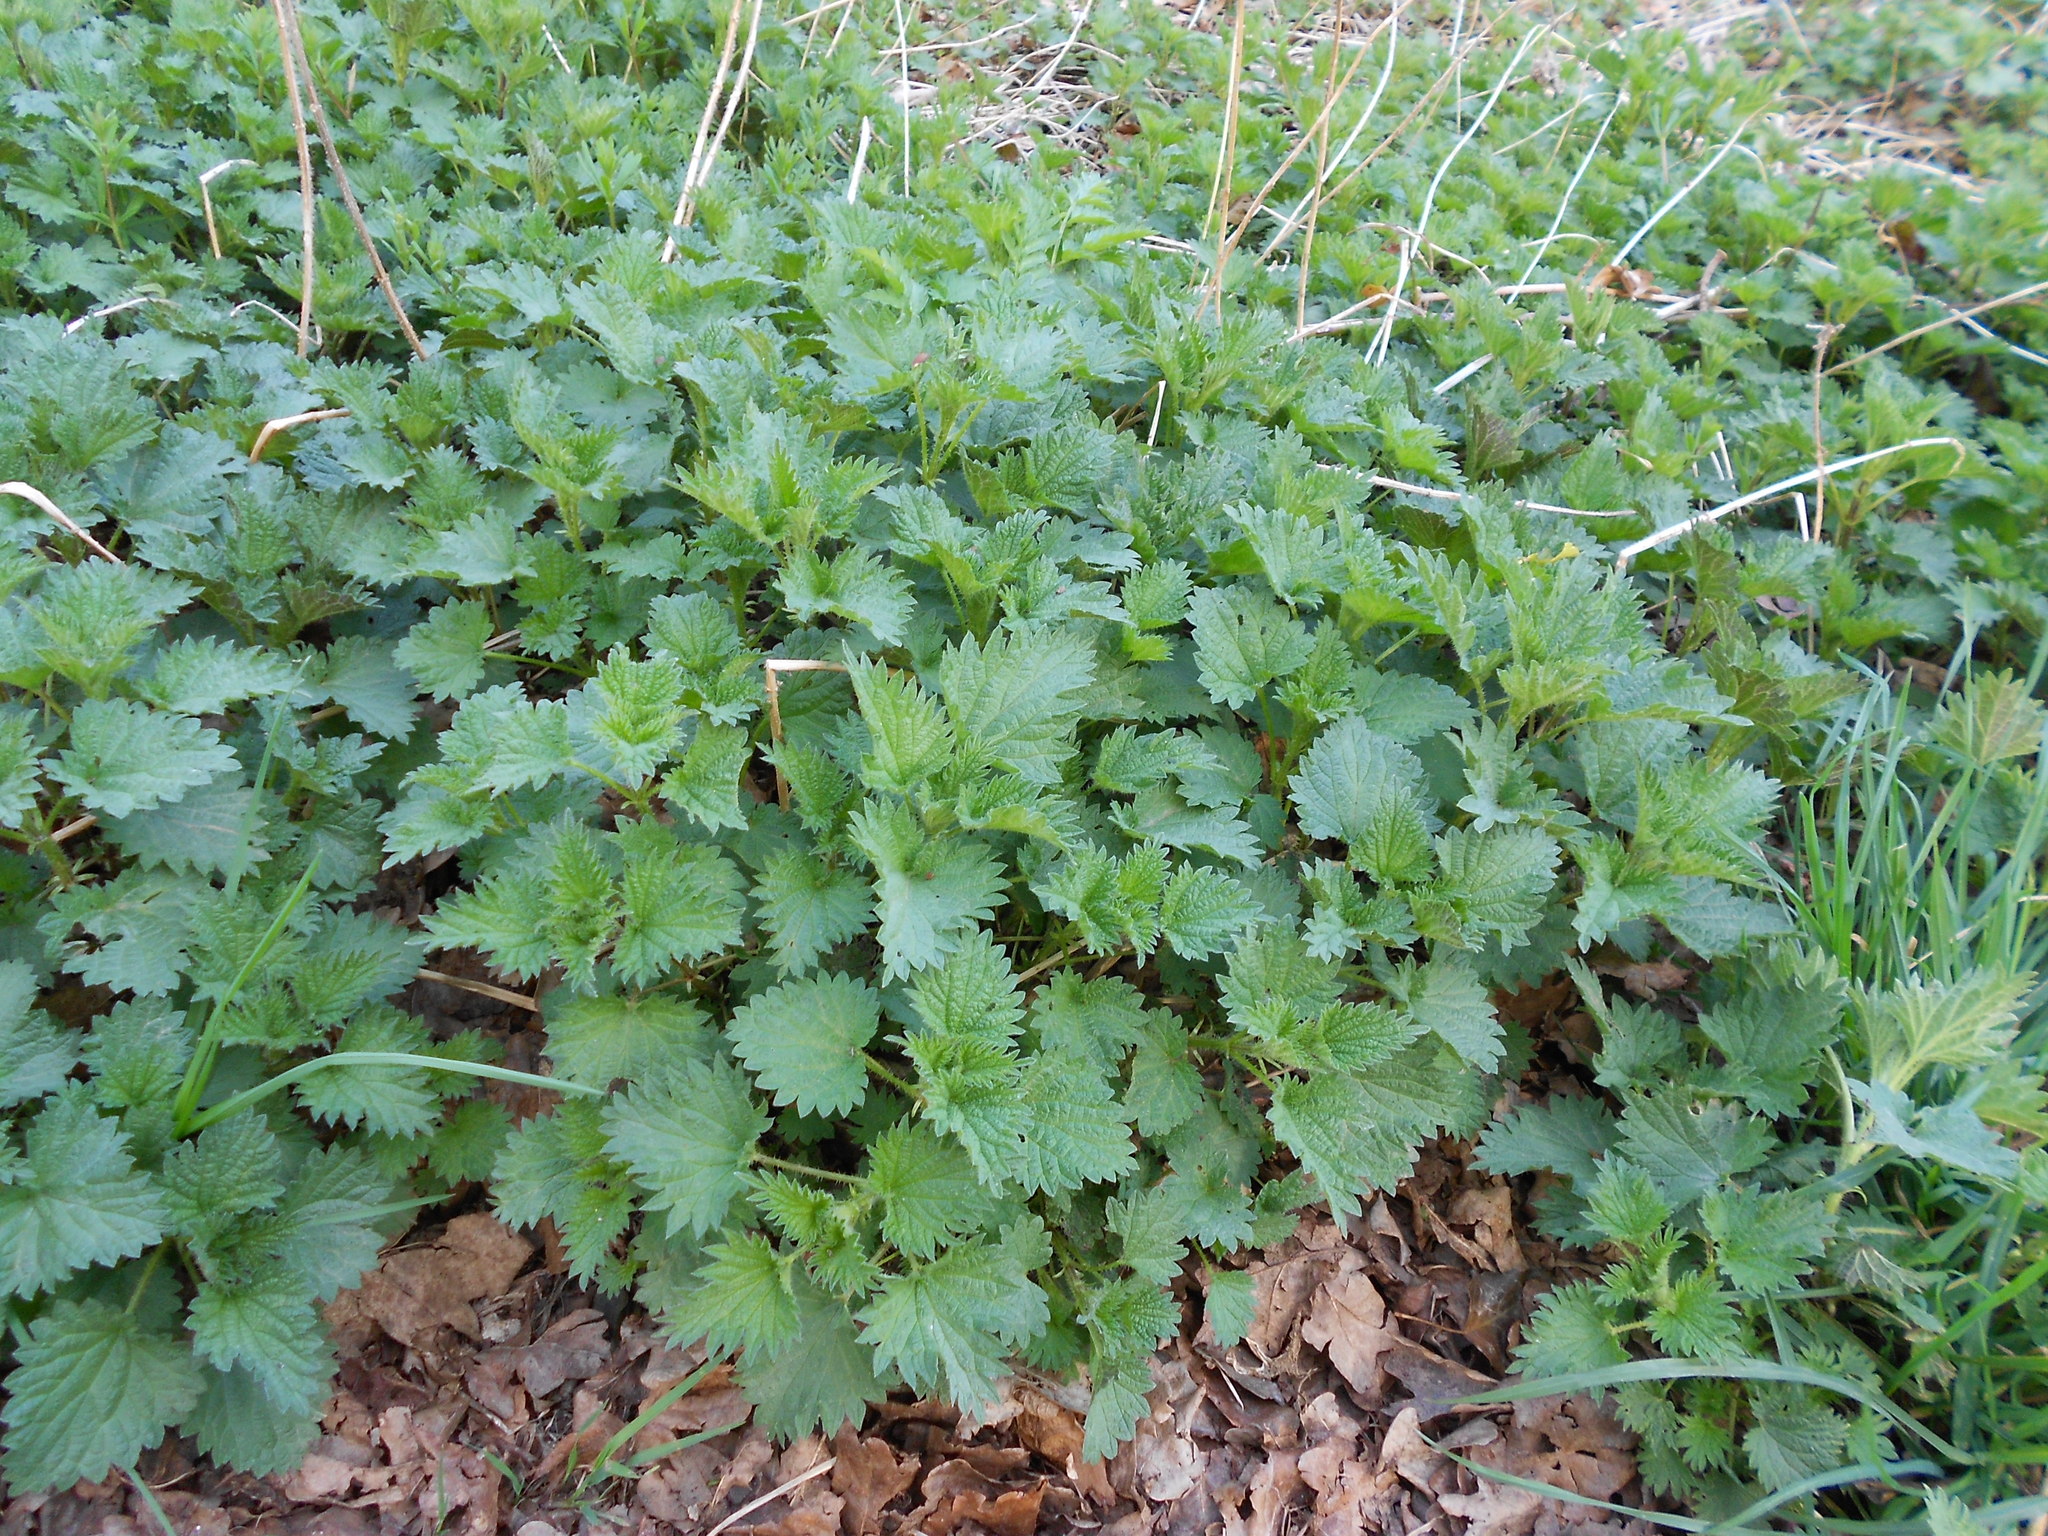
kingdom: Plantae
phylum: Tracheophyta
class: Magnoliopsida
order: Rosales
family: Urticaceae
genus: Urtica
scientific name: Urtica dioica
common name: Common nettle
